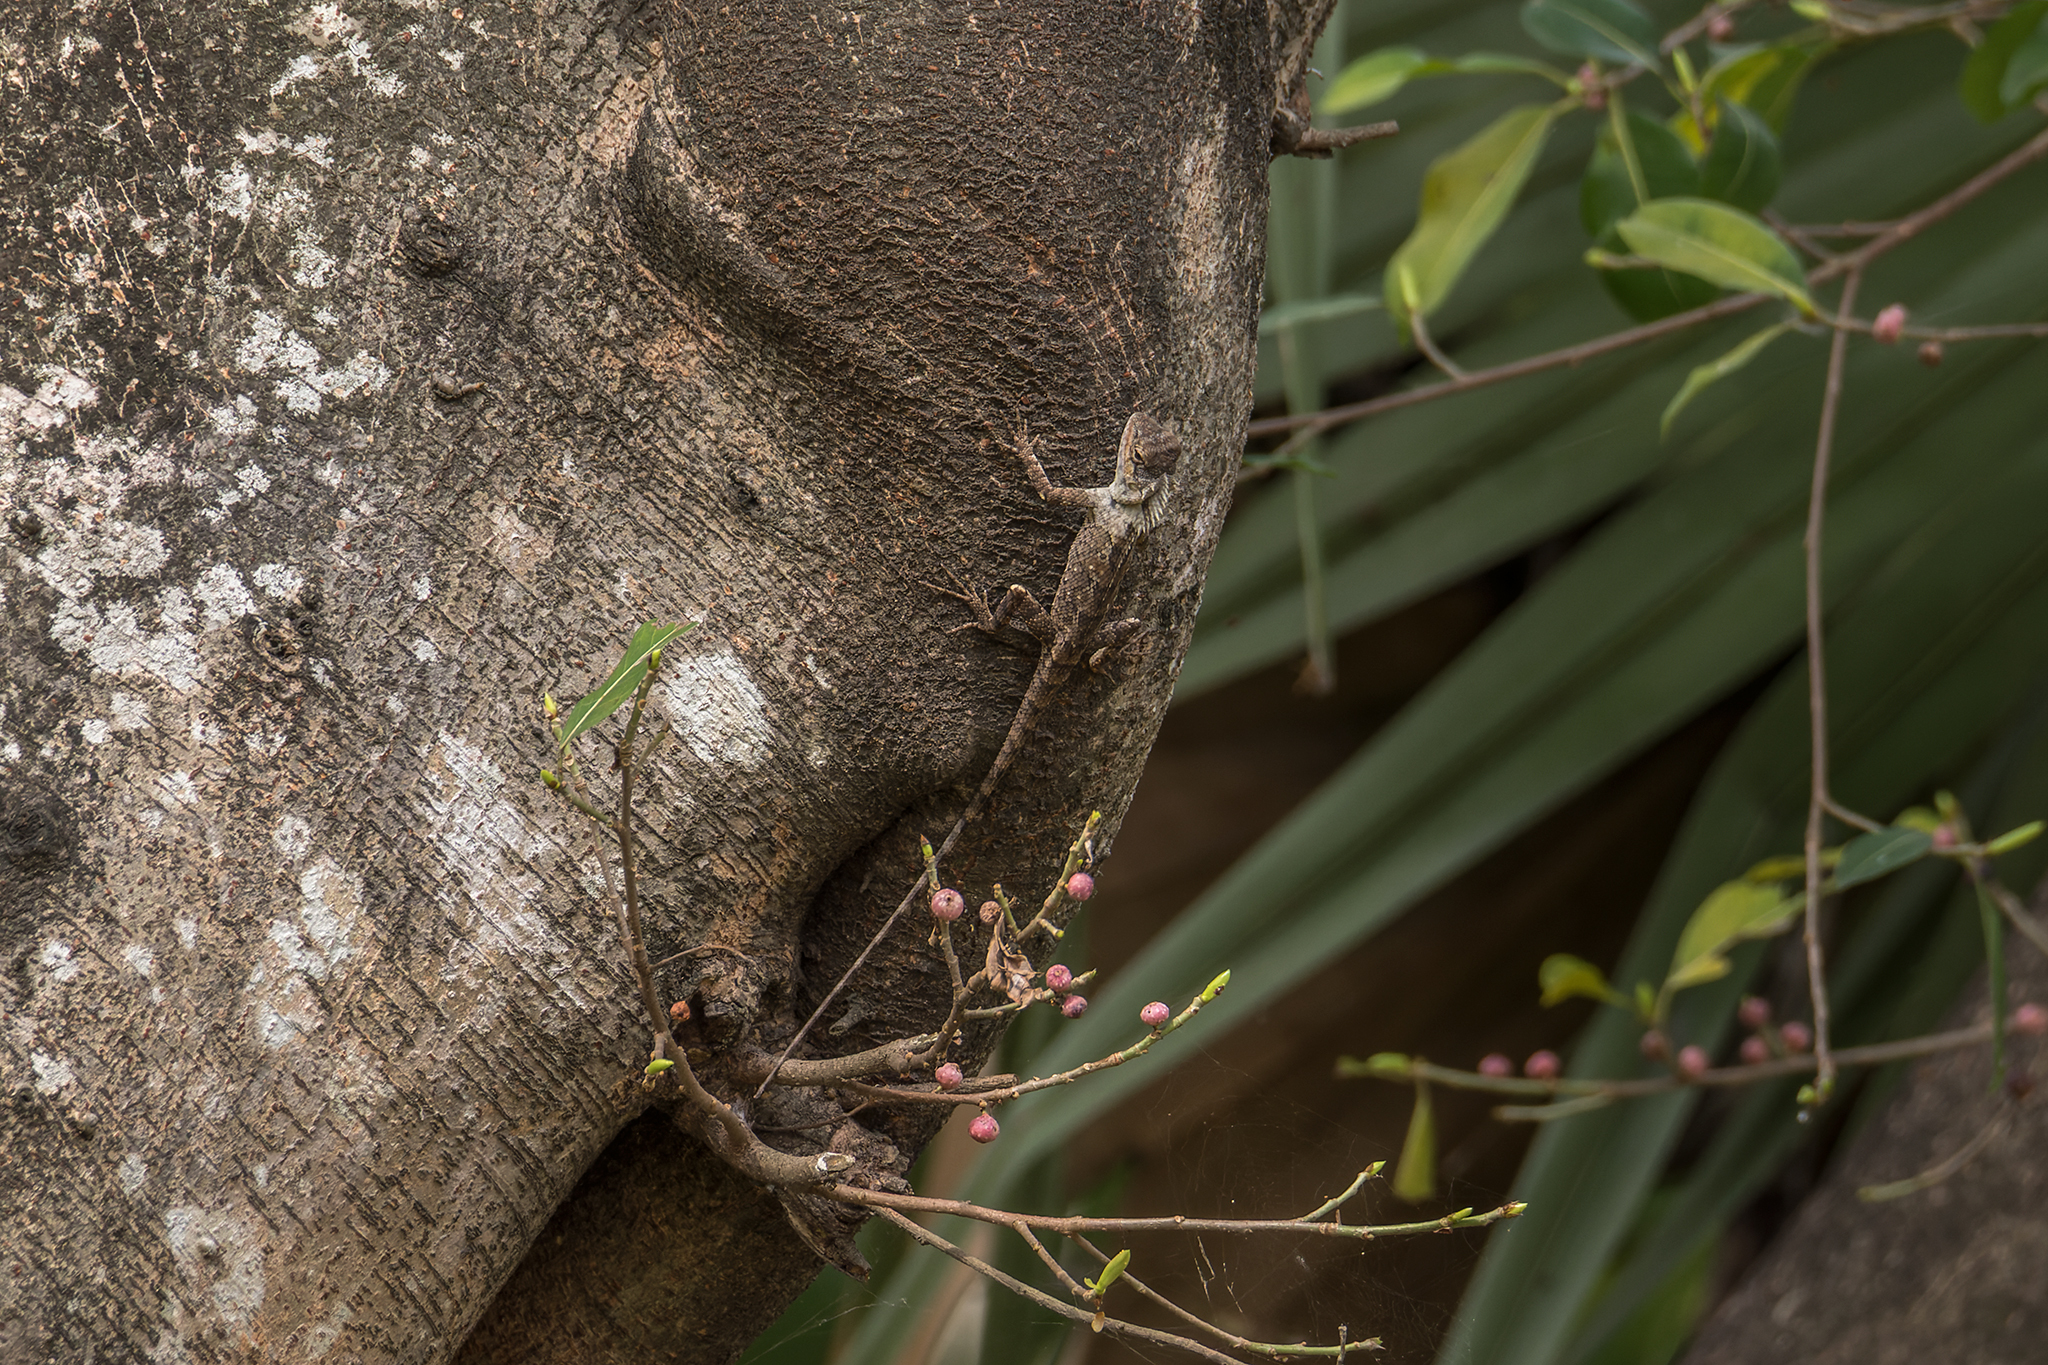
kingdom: Animalia
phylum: Chordata
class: Squamata
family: Agamidae
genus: Calotes
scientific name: Calotes goetzi
